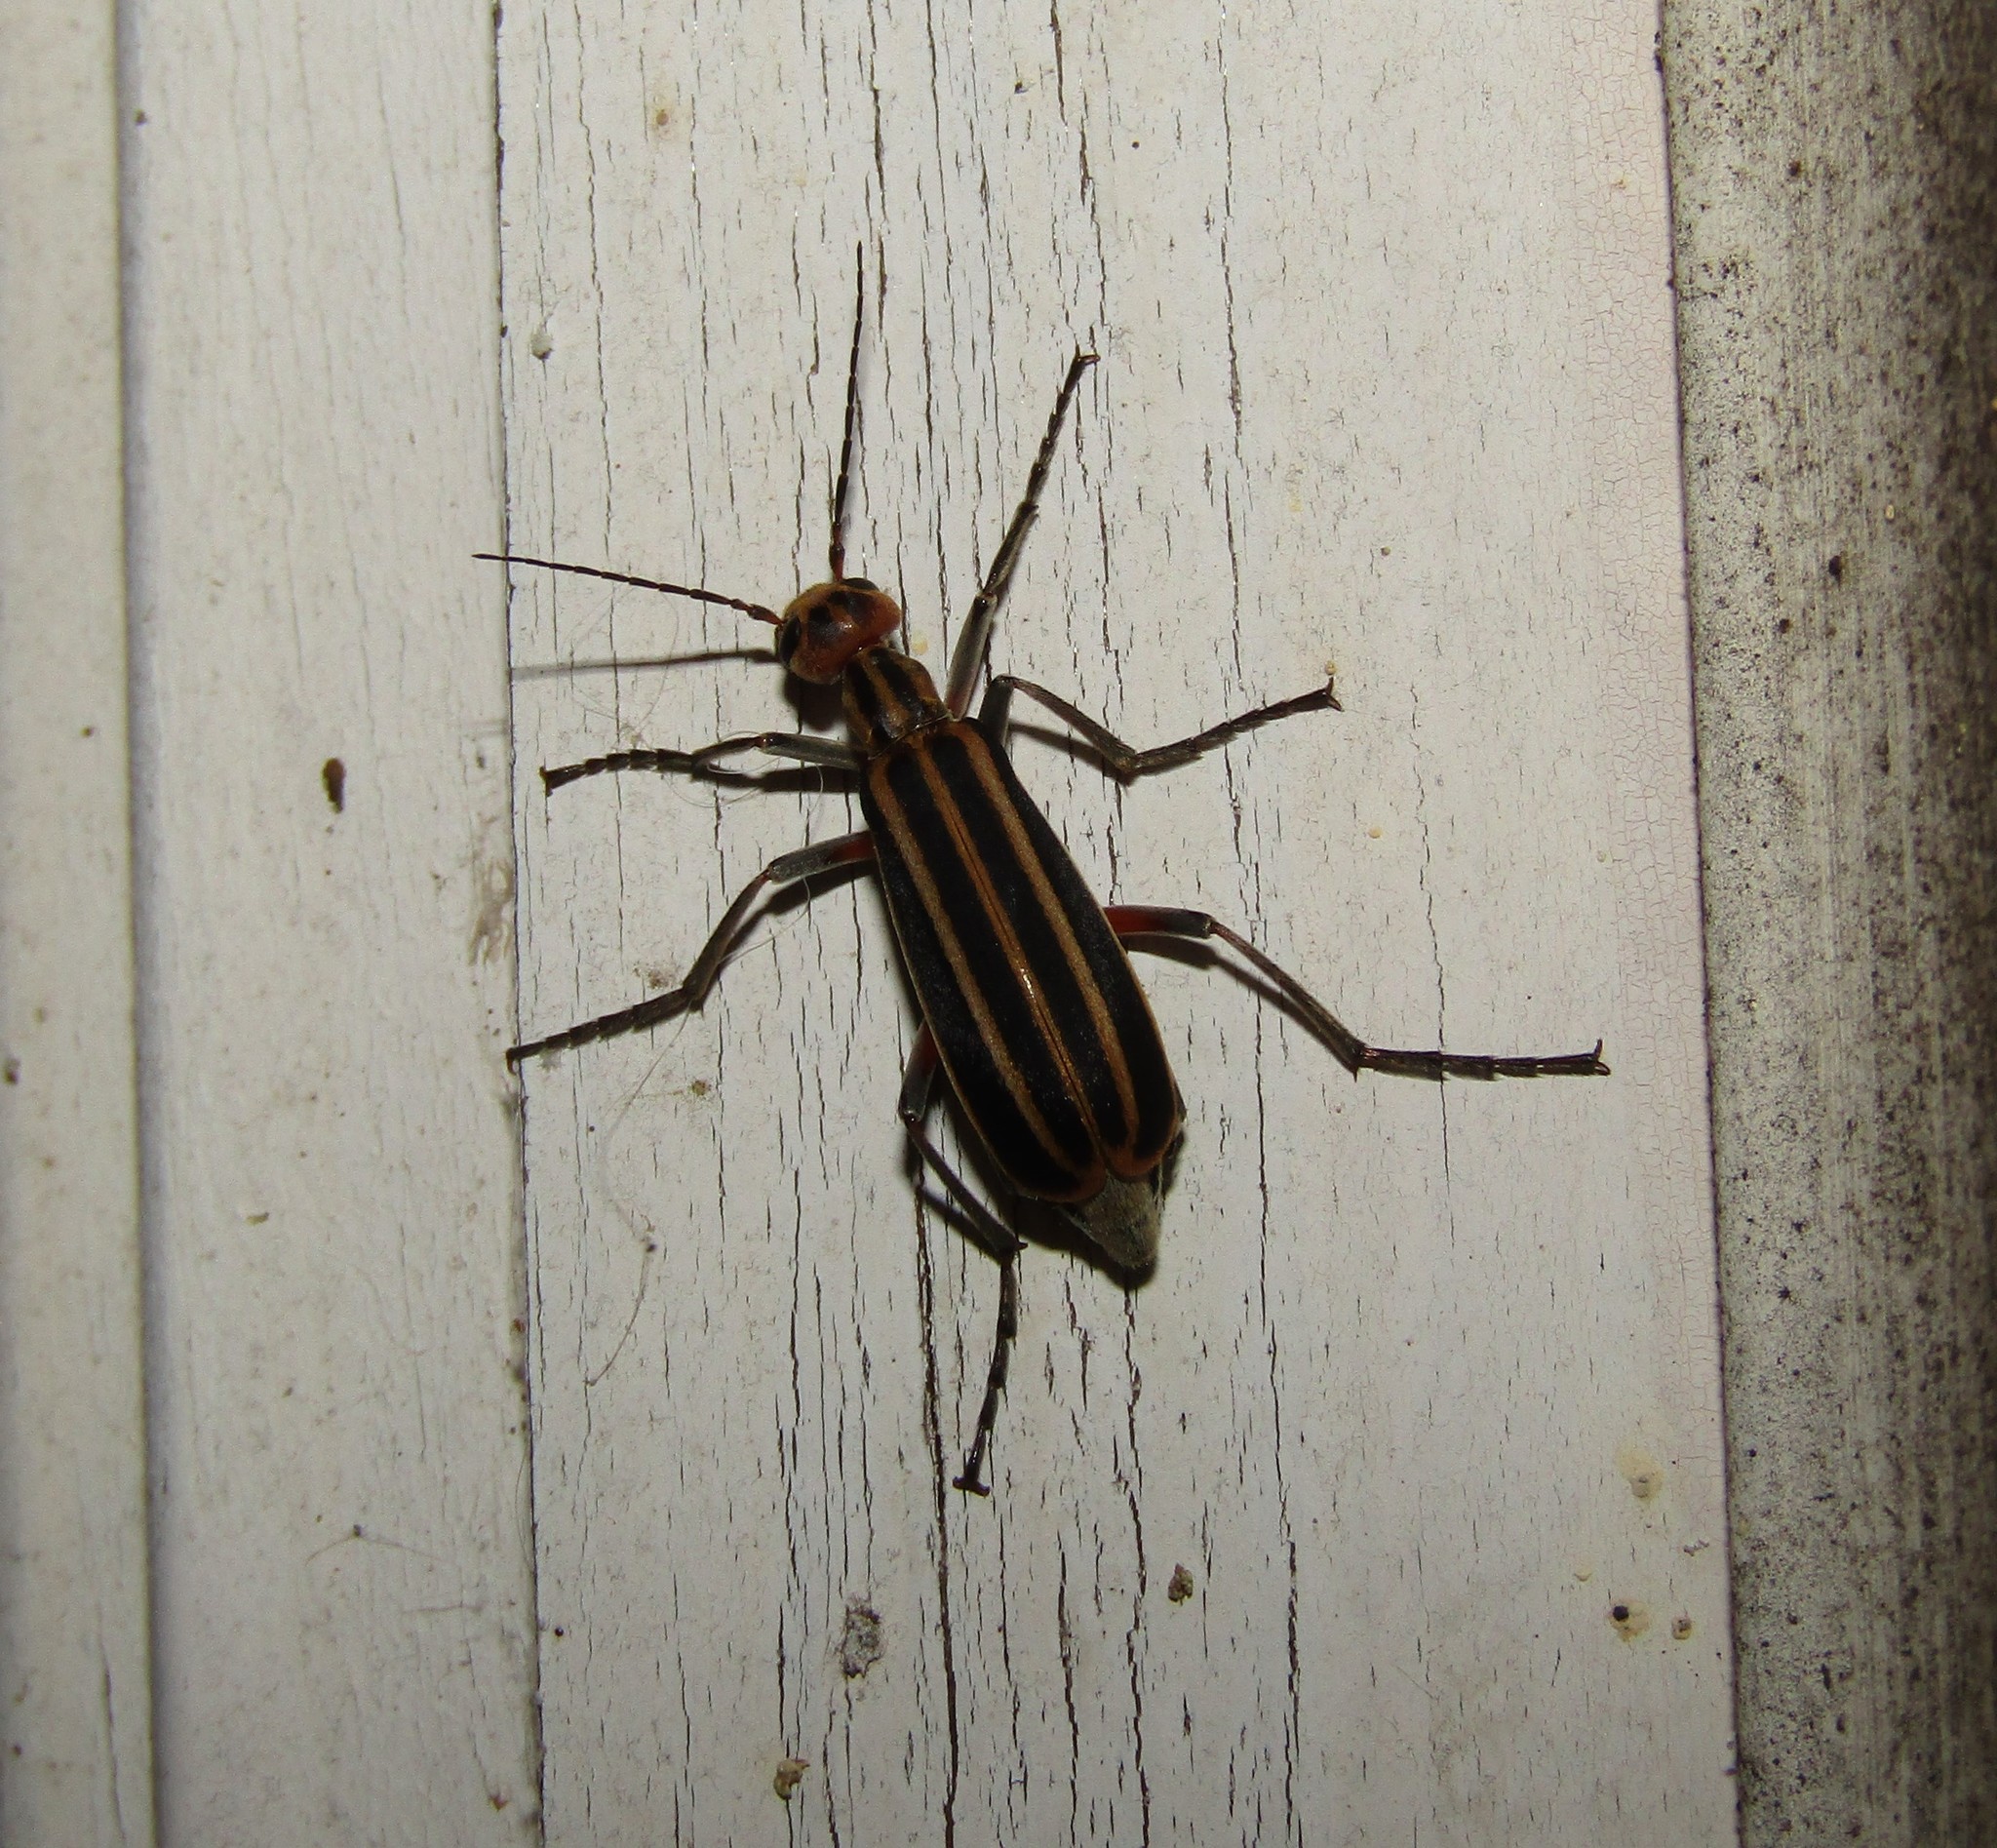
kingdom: Animalia
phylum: Arthropoda
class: Insecta
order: Coleoptera
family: Meloidae
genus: Epicauta
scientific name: Epicauta vittata
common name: Old-fashioned potato beetle
